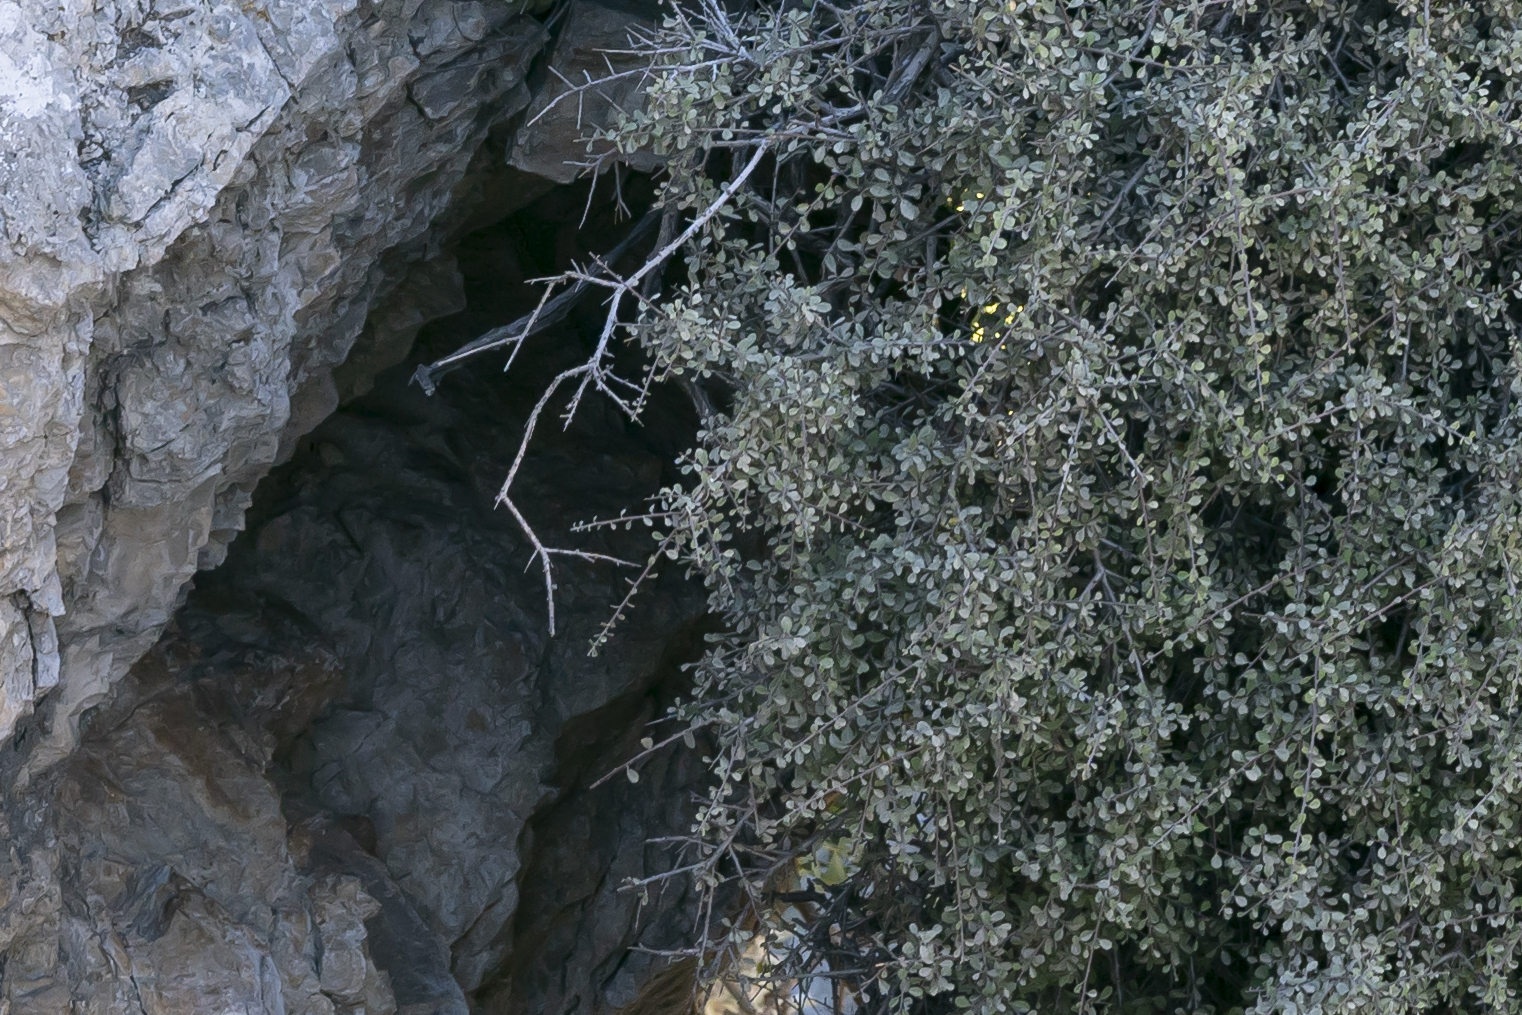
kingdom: Plantae
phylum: Tracheophyta
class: Magnoliopsida
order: Rosales
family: Rhamnaceae
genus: Rhamnus
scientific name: Rhamnus pichleri
